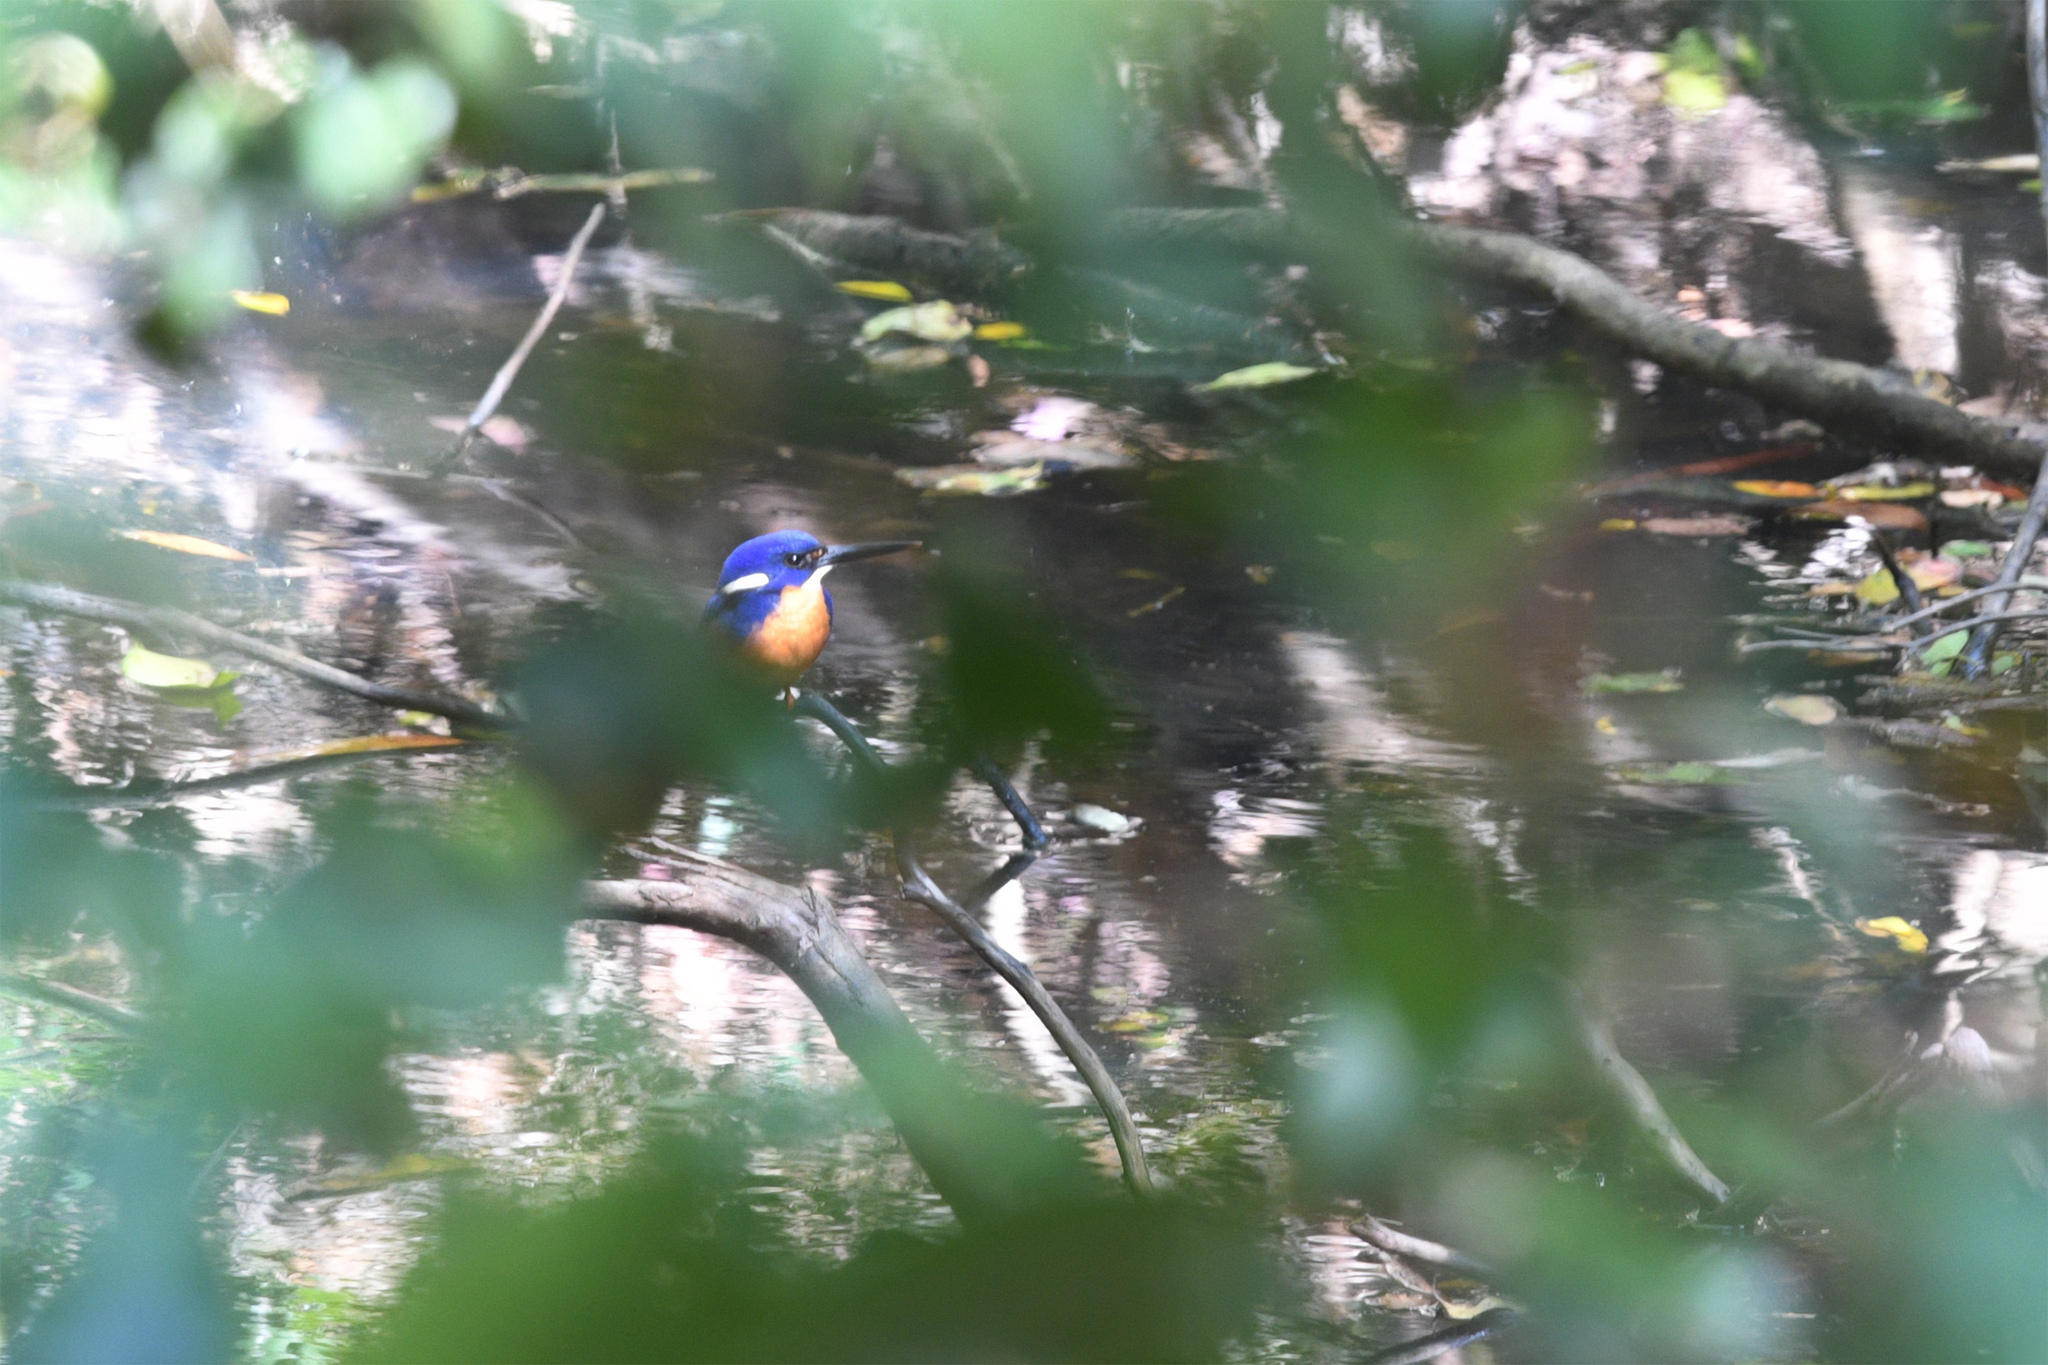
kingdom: Animalia
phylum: Chordata
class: Aves
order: Coraciiformes
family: Alcedinidae
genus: Ceyx
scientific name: Ceyx azureus
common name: Azure kingfisher
